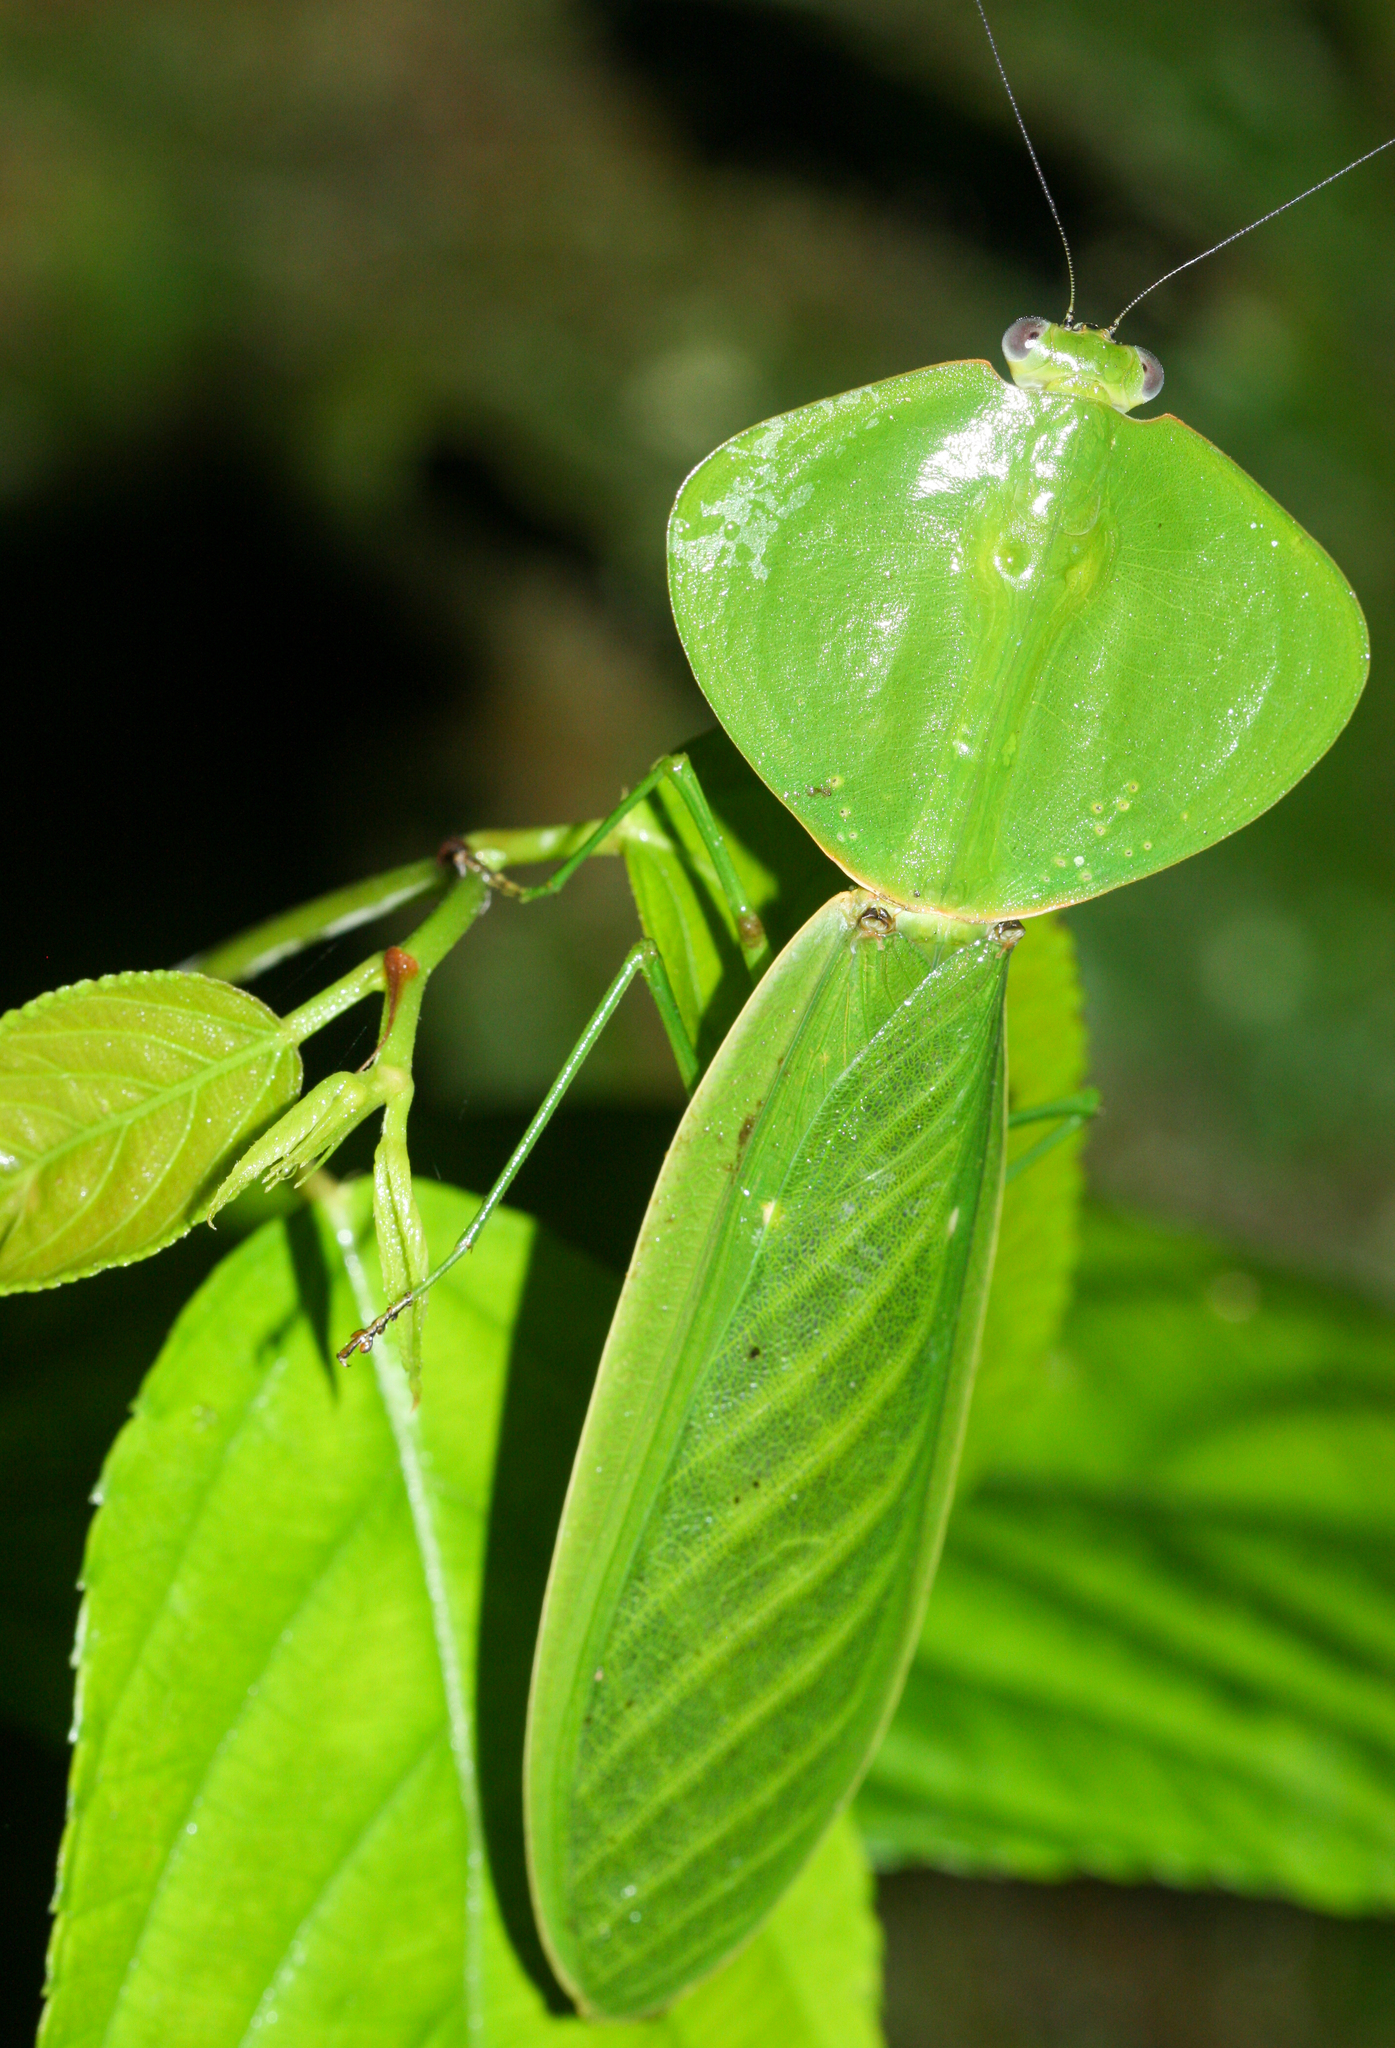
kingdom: Animalia
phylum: Arthropoda
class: Insecta
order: Mantodea
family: Mantidae
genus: Choeradodis
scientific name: Choeradodis rhombicollis
